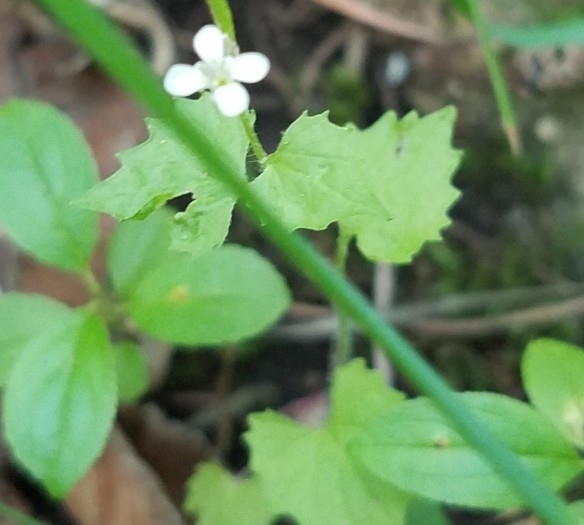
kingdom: Plantae
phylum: Tracheophyta
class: Magnoliopsida
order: Brassicales
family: Brassicaceae
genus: Alliaria
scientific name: Alliaria petiolata
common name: Garlic mustard
